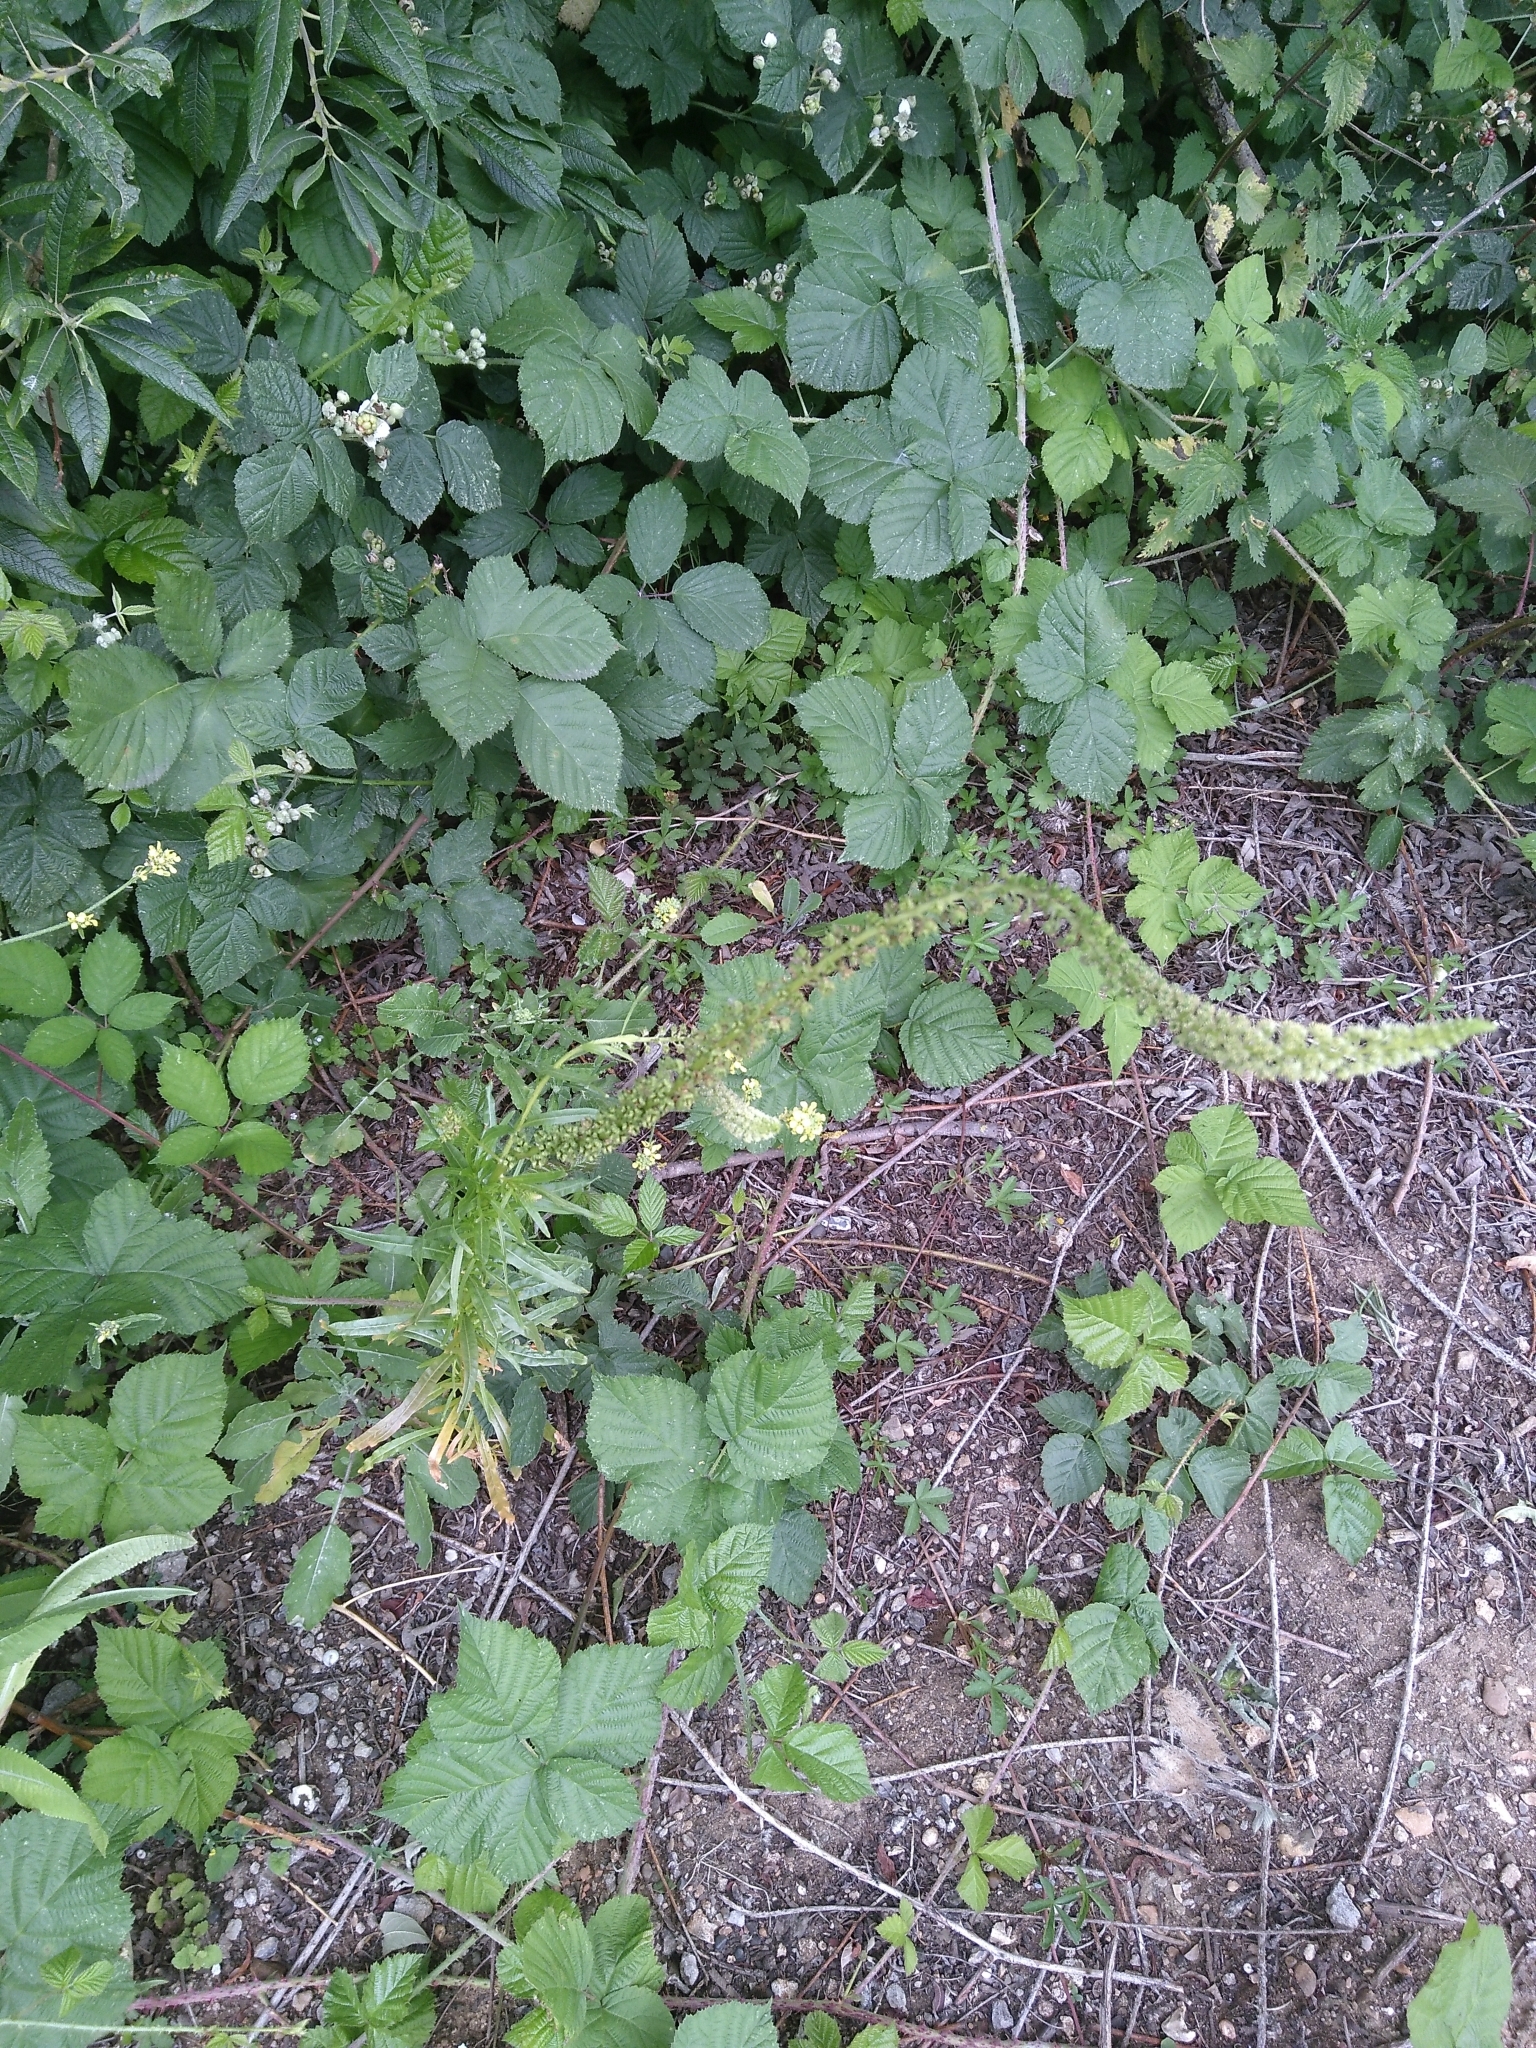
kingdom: Plantae
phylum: Tracheophyta
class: Magnoliopsida
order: Brassicales
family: Resedaceae
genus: Reseda
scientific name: Reseda luteola
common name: Weld
